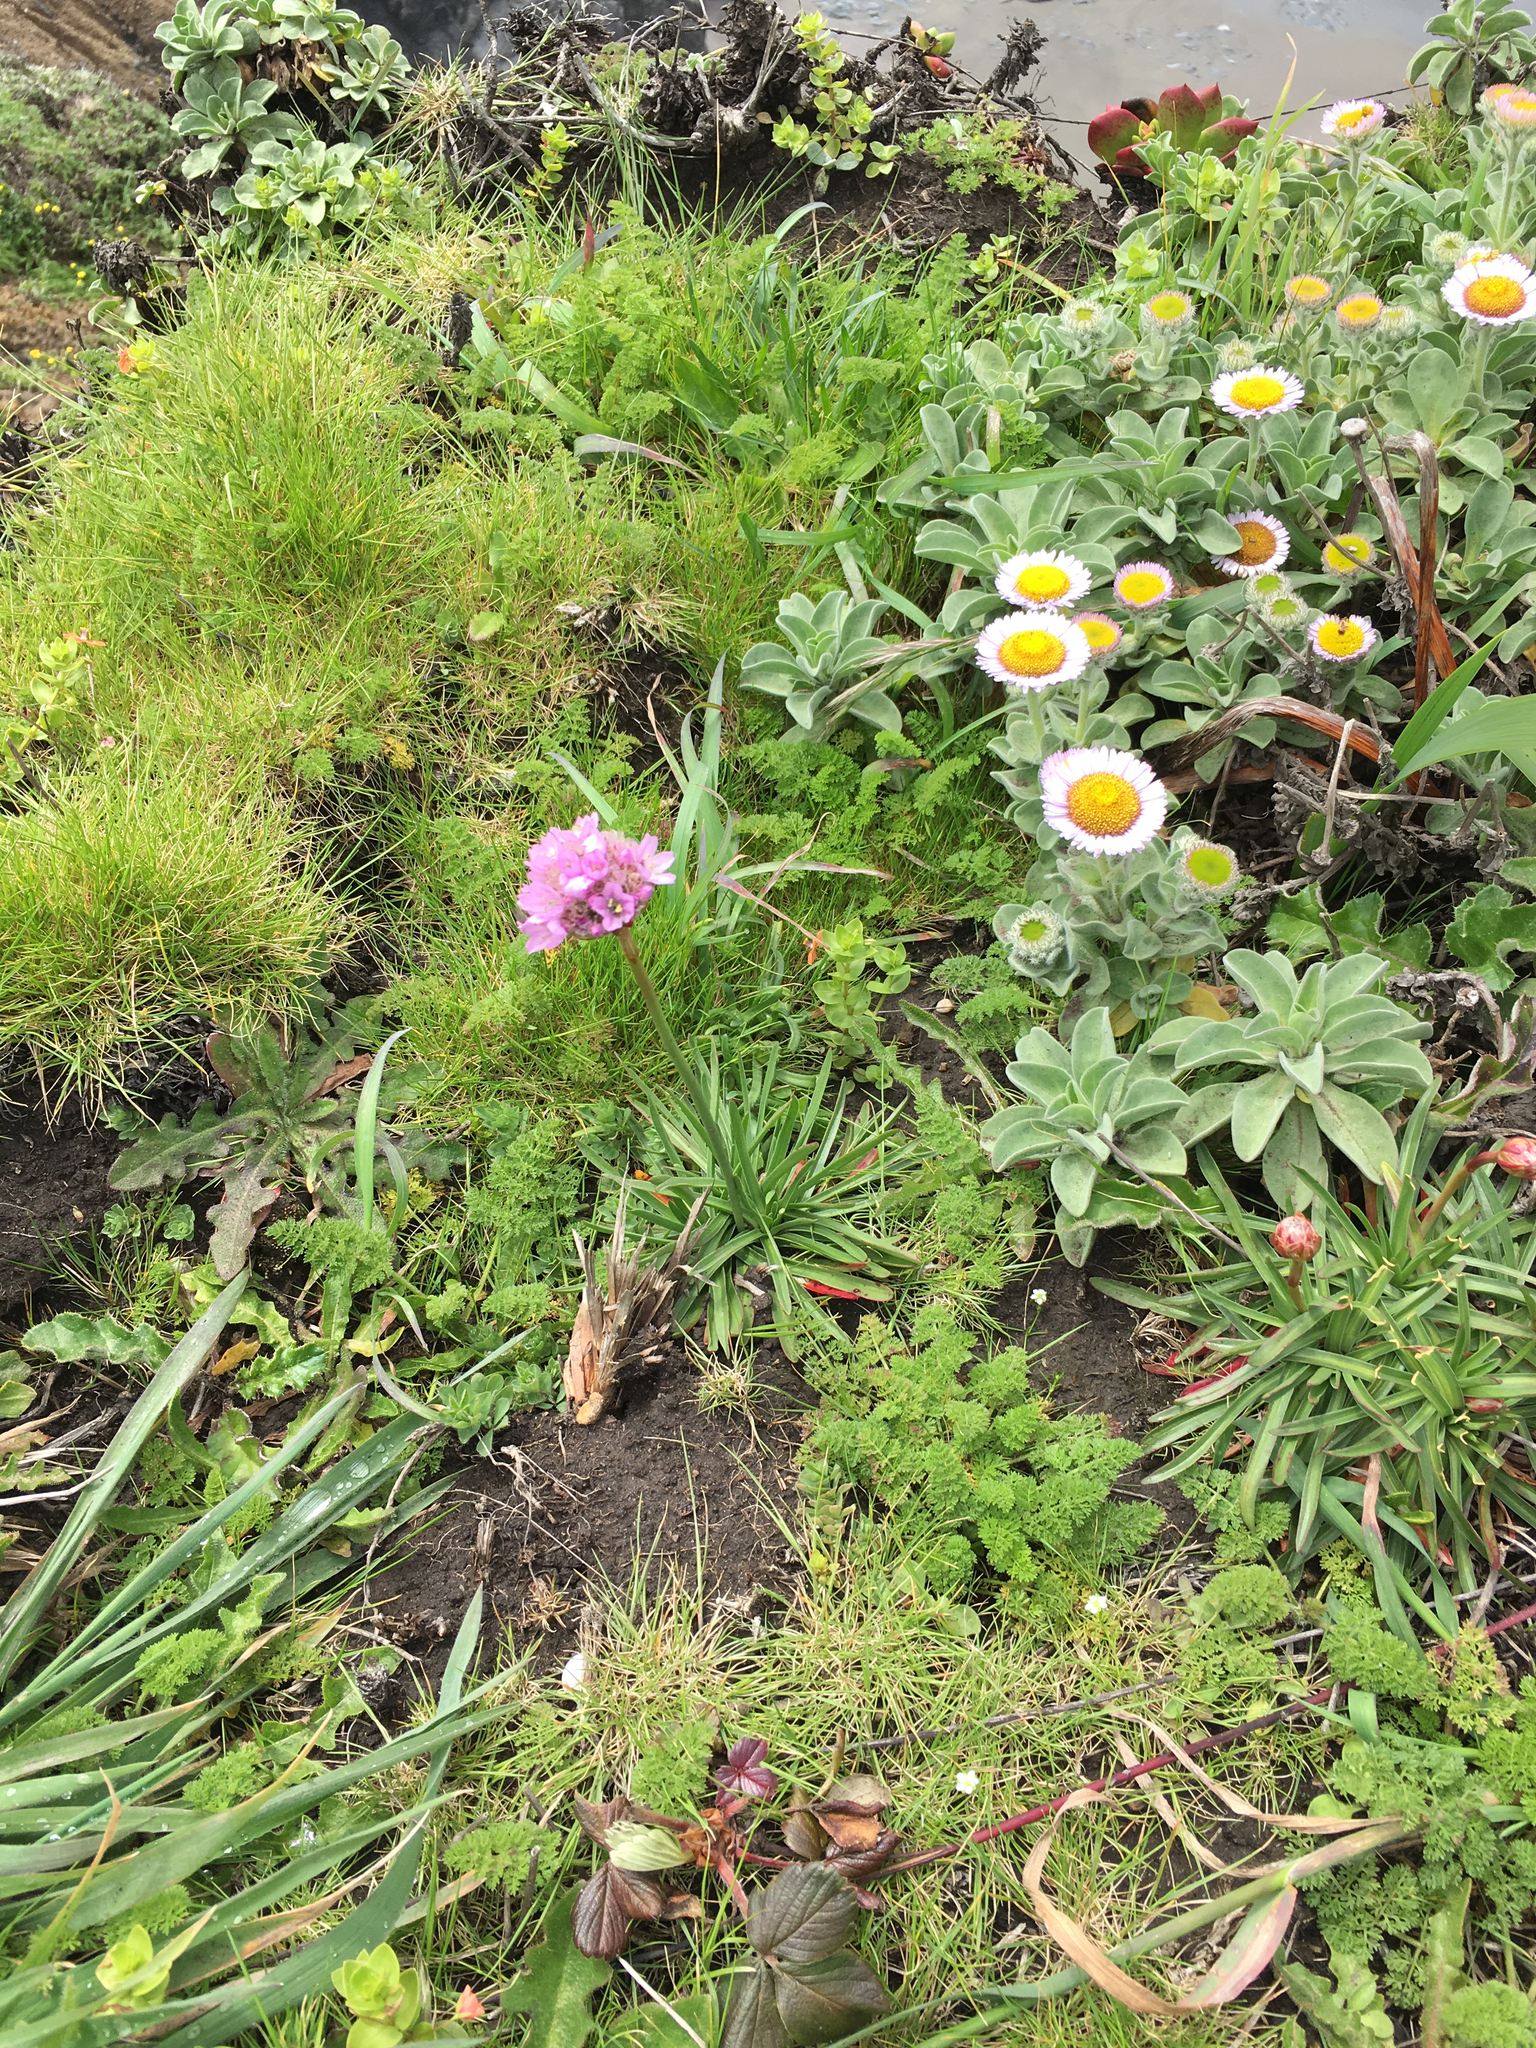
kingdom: Plantae
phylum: Tracheophyta
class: Magnoliopsida
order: Caryophyllales
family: Plumbaginaceae
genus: Armeria
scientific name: Armeria maritima
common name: Thrift
